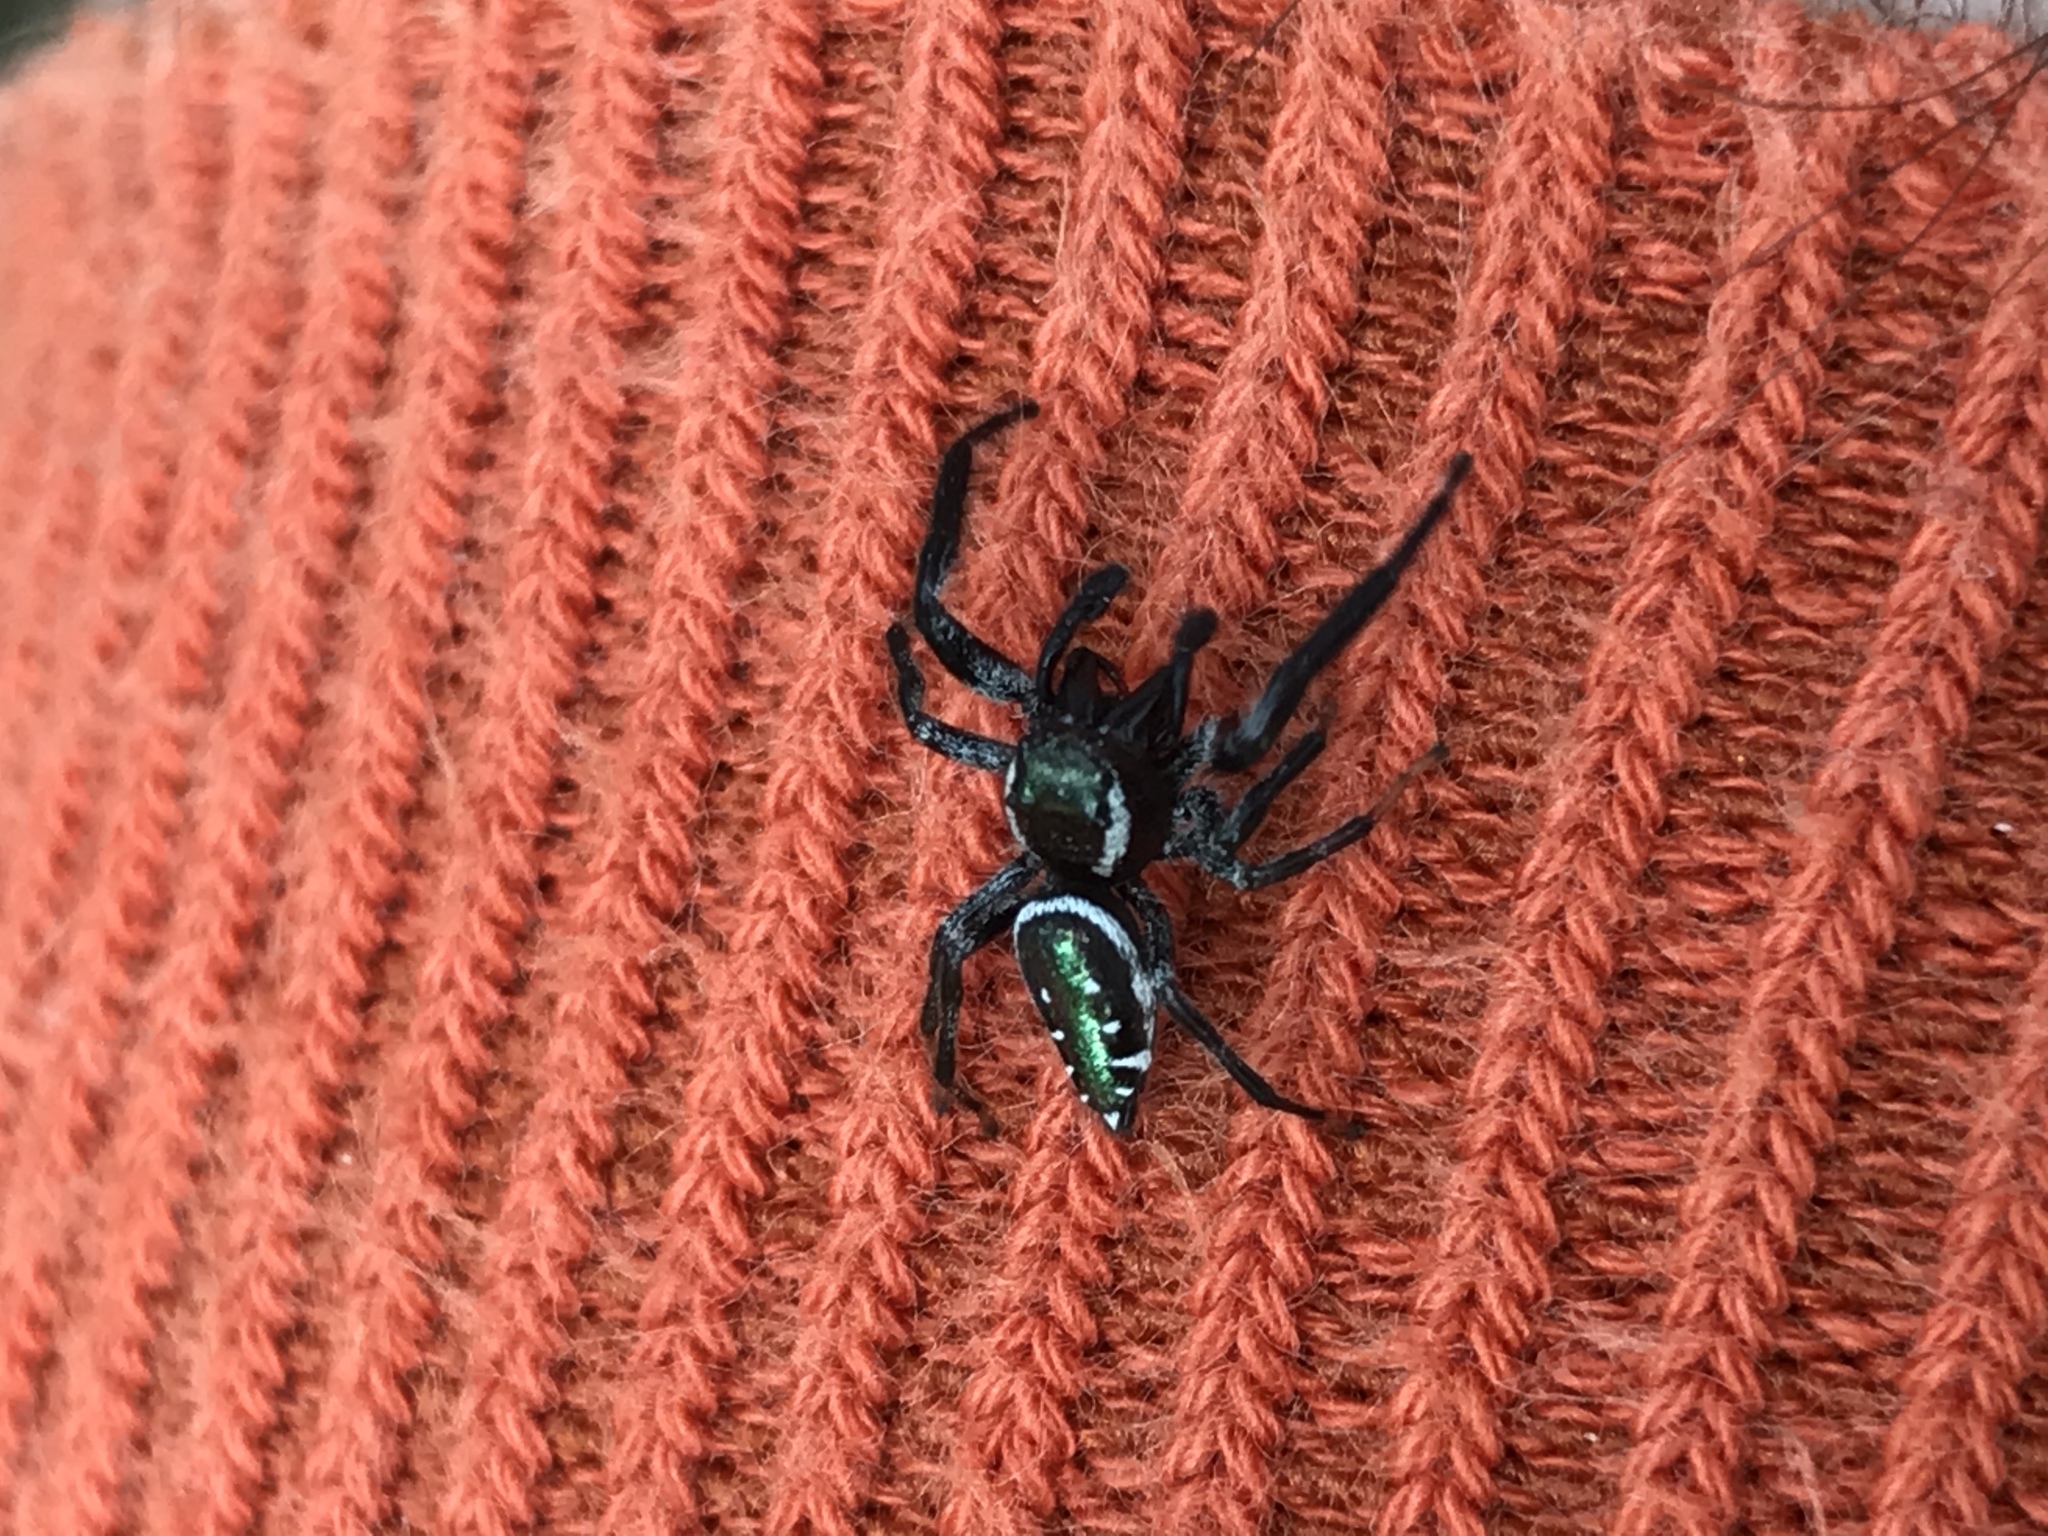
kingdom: Animalia
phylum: Arthropoda
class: Arachnida
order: Araneae
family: Salticidae
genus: Paraphidippus
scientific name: Paraphidippus aurantius
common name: Jumping spiders
